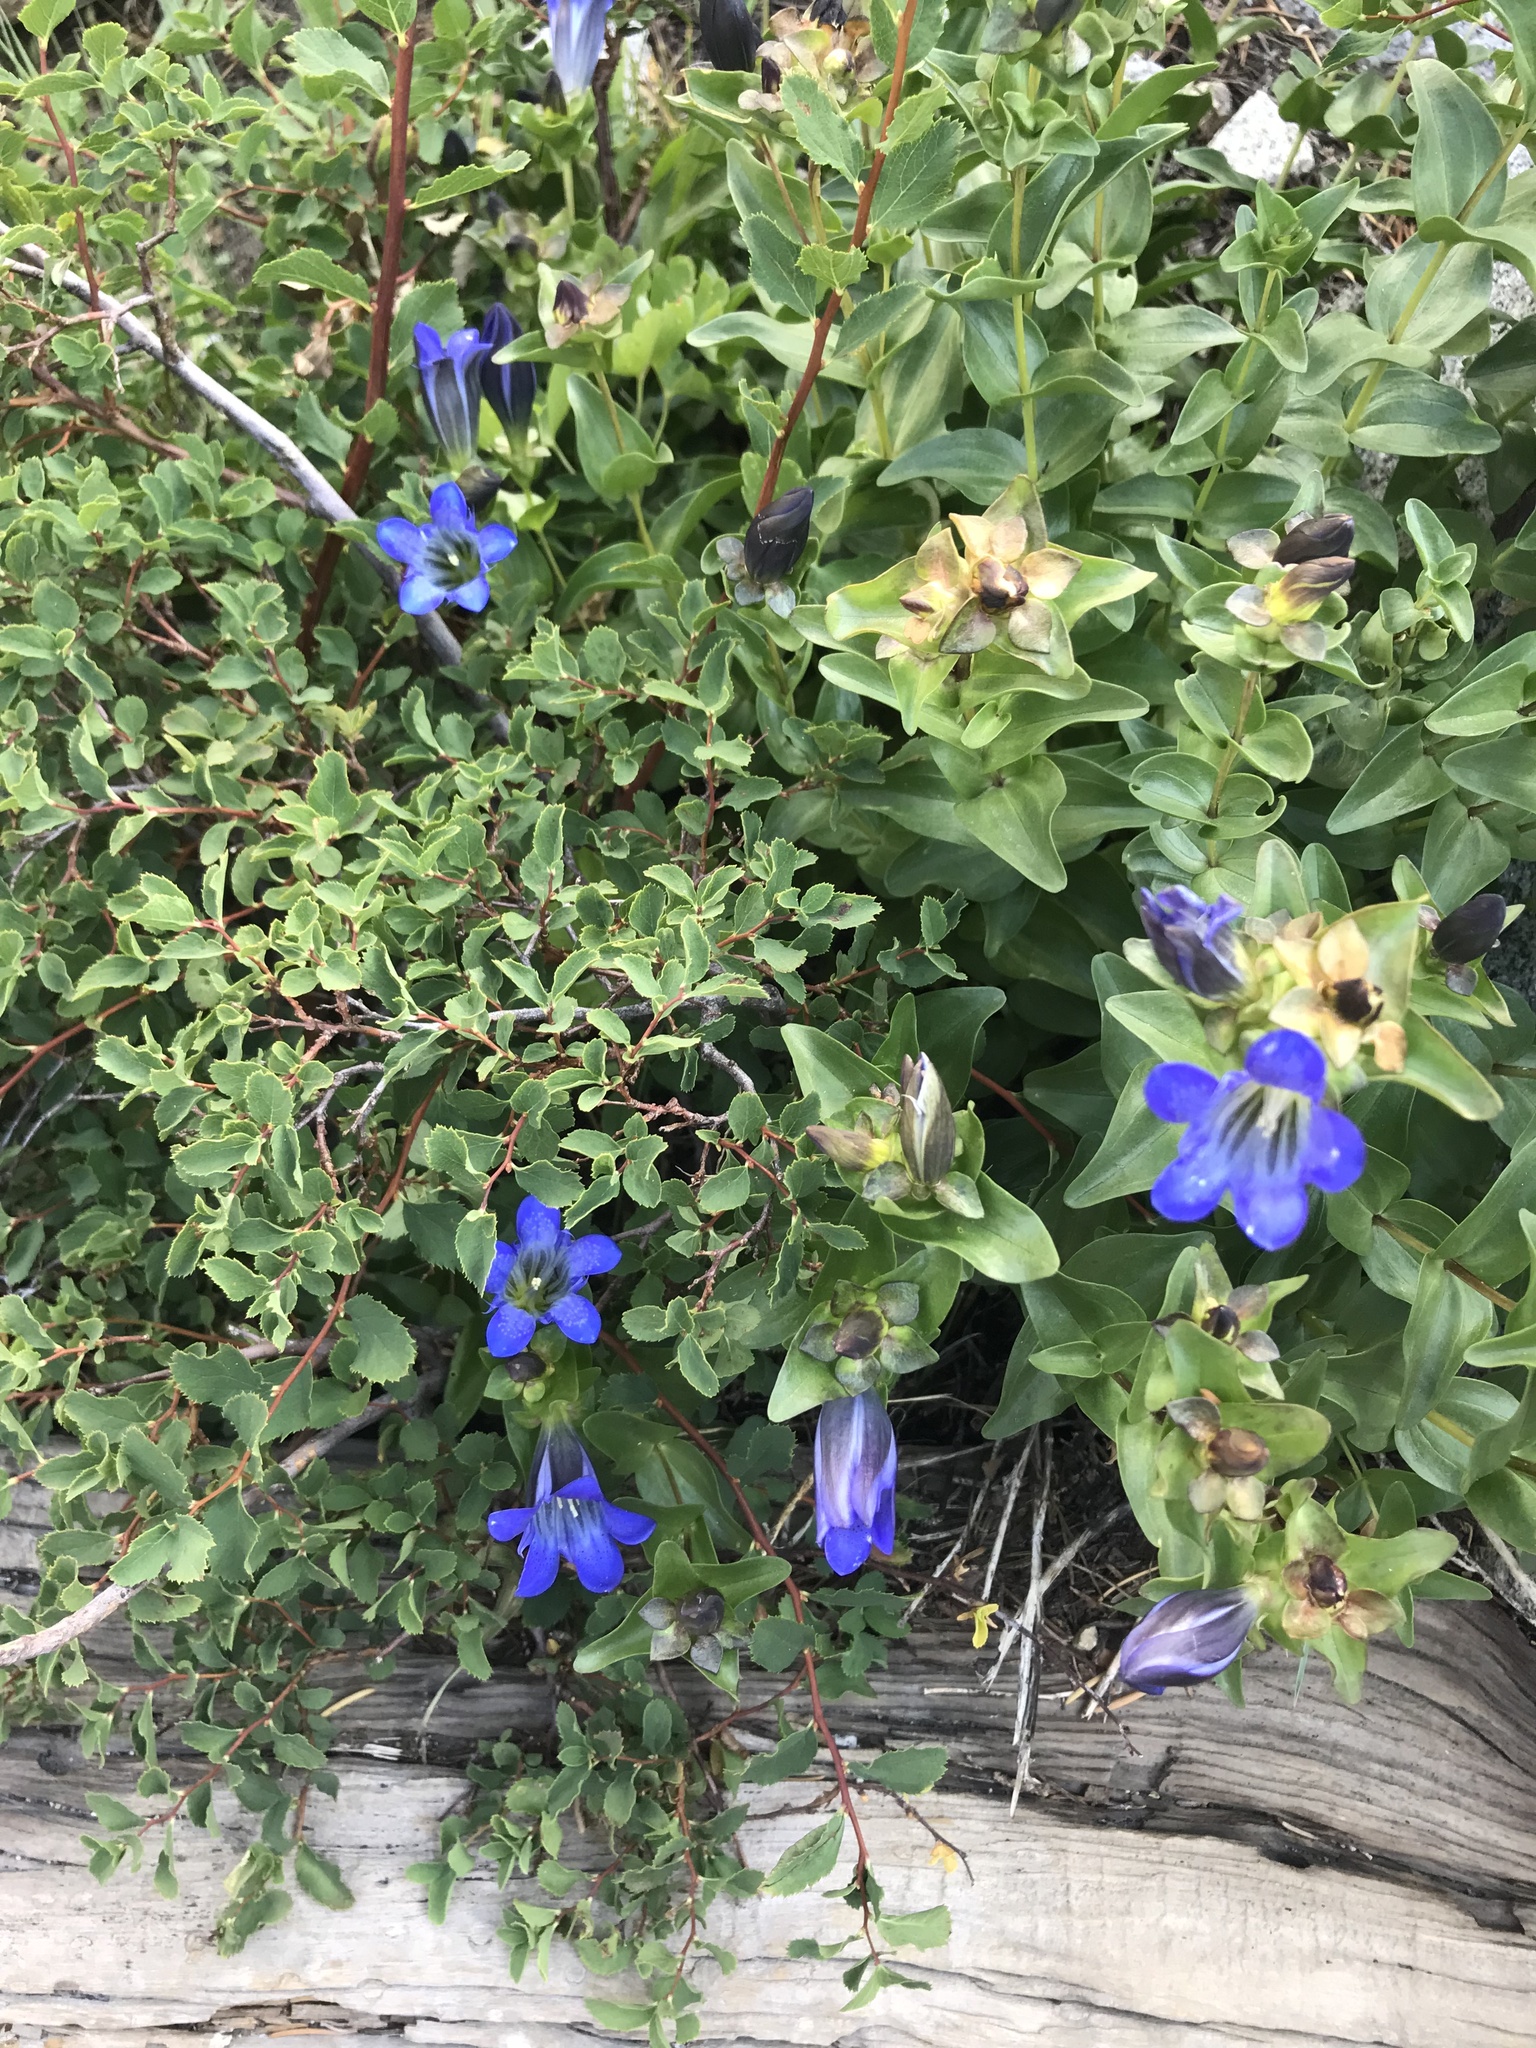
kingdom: Plantae
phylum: Tracheophyta
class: Magnoliopsida
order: Gentianales
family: Gentianaceae
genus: Gentiana
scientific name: Gentiana calycosa
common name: Rainier pleated gentian
